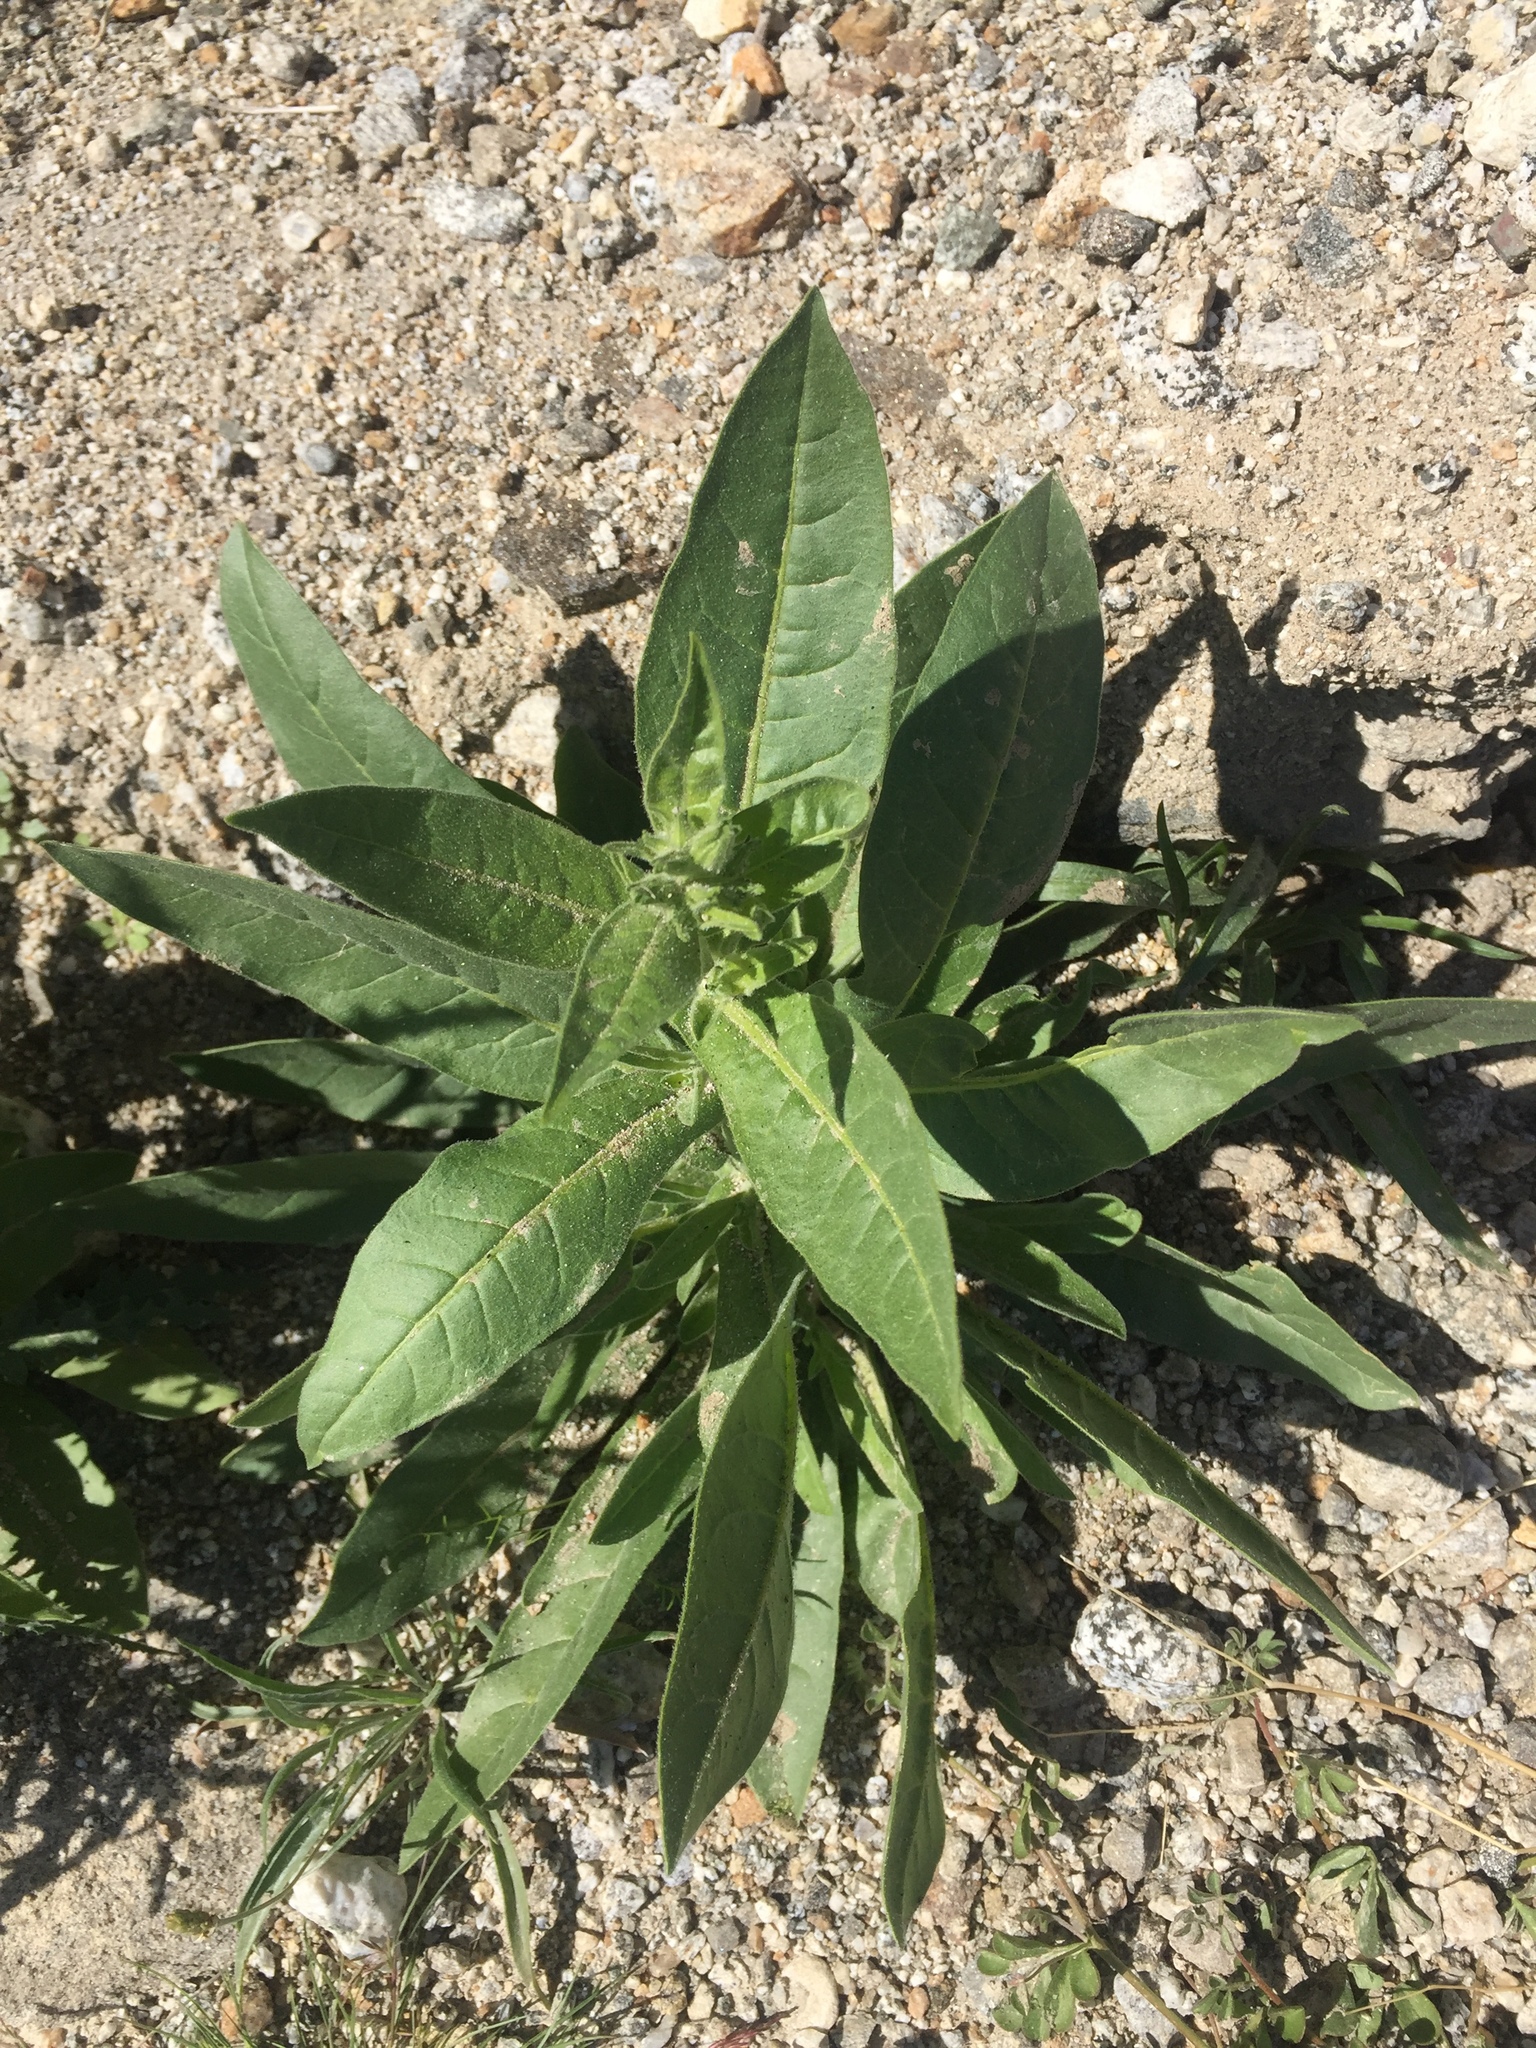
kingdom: Plantae
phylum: Tracheophyta
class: Magnoliopsida
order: Solanales
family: Solanaceae
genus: Nicotiana
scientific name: Nicotiana obtusifolia
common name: Desert tobacco
